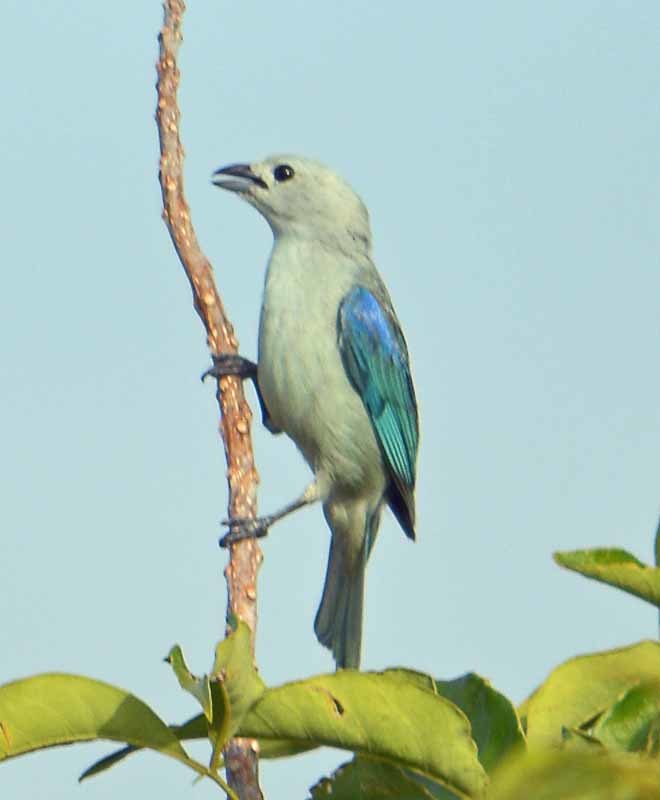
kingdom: Animalia
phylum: Chordata
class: Aves
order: Passeriformes
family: Thraupidae
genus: Thraupis
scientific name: Thraupis episcopus
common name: Blue-grey tanager
